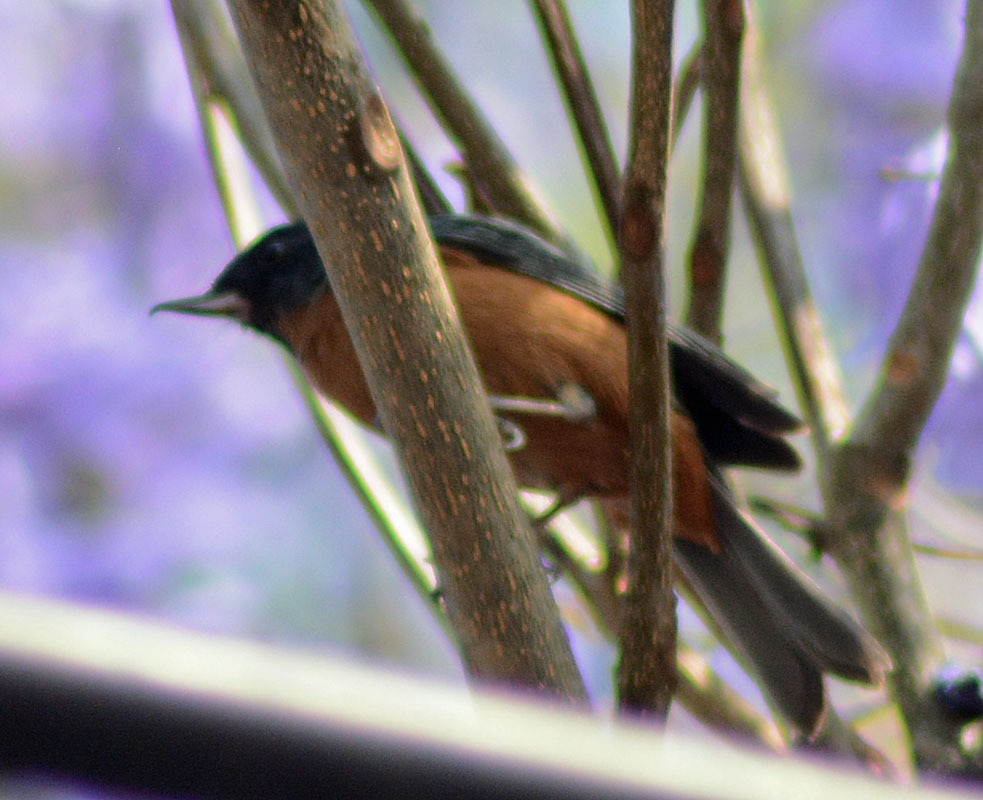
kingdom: Animalia
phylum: Chordata
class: Aves
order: Passeriformes
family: Thraupidae
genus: Diglossa
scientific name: Diglossa baritula
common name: Cinnamon-bellied flowerpiercer
